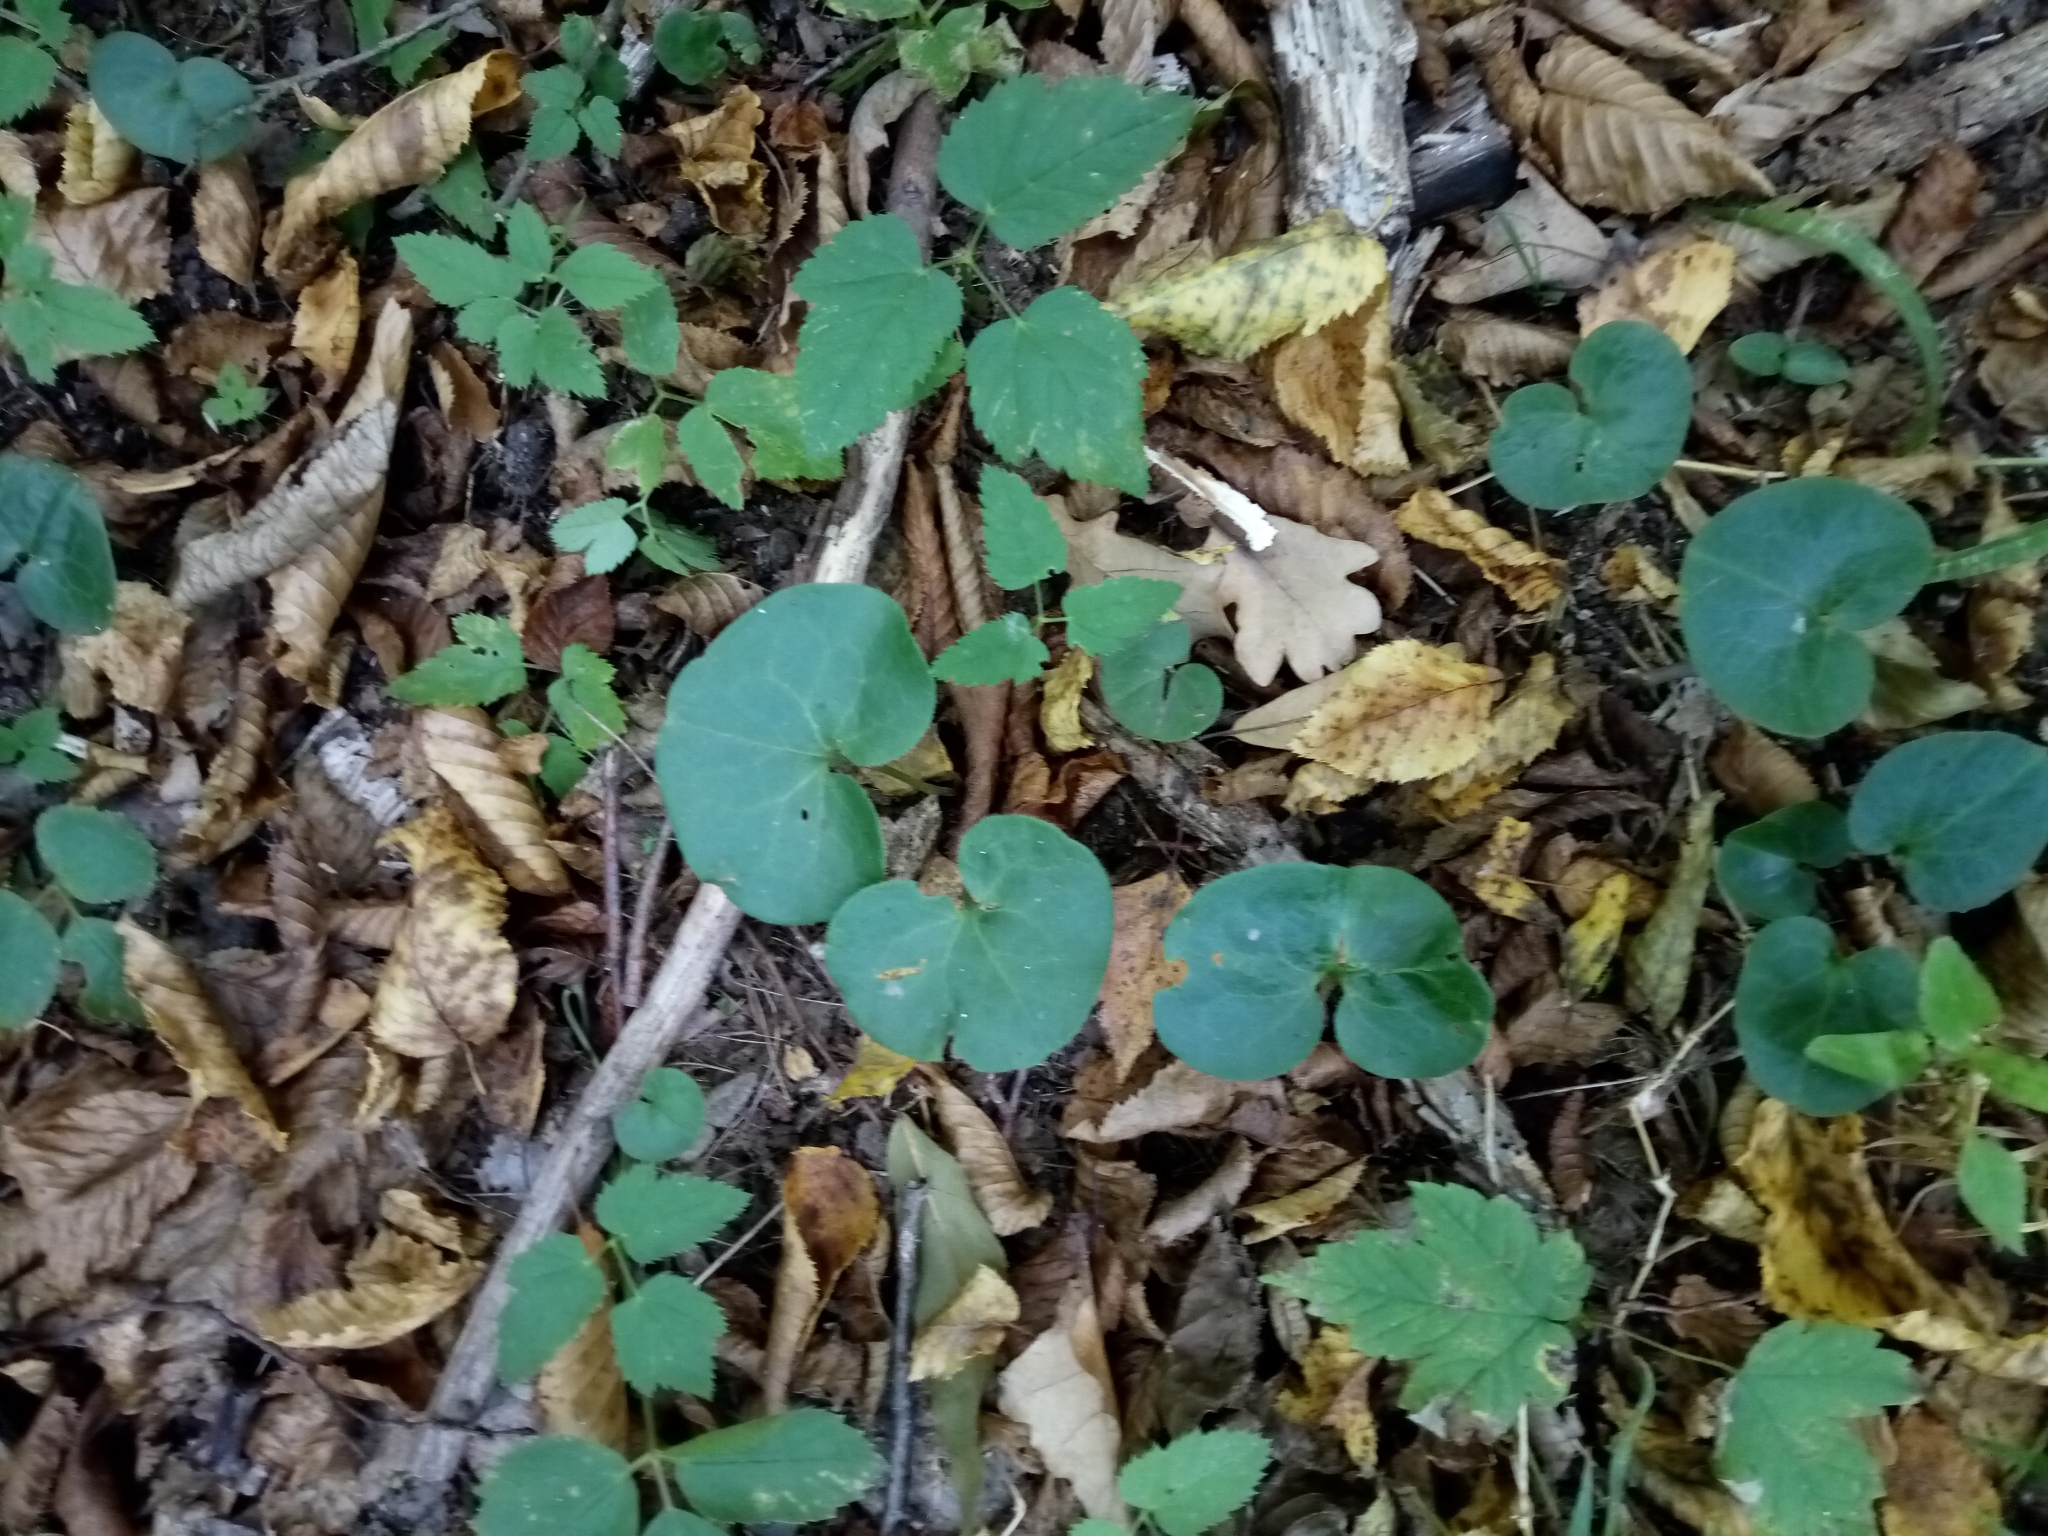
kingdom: Plantae
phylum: Tracheophyta
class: Magnoliopsida
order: Piperales
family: Aristolochiaceae
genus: Asarum
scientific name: Asarum europaeum
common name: Asarabacca
